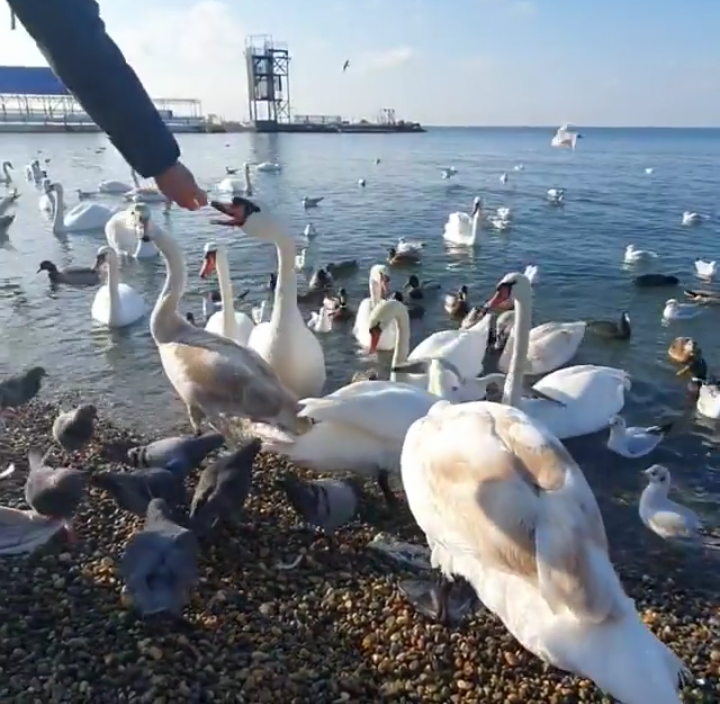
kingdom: Animalia
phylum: Chordata
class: Aves
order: Columbiformes
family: Columbidae
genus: Columba
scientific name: Columba livia
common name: Rock pigeon
